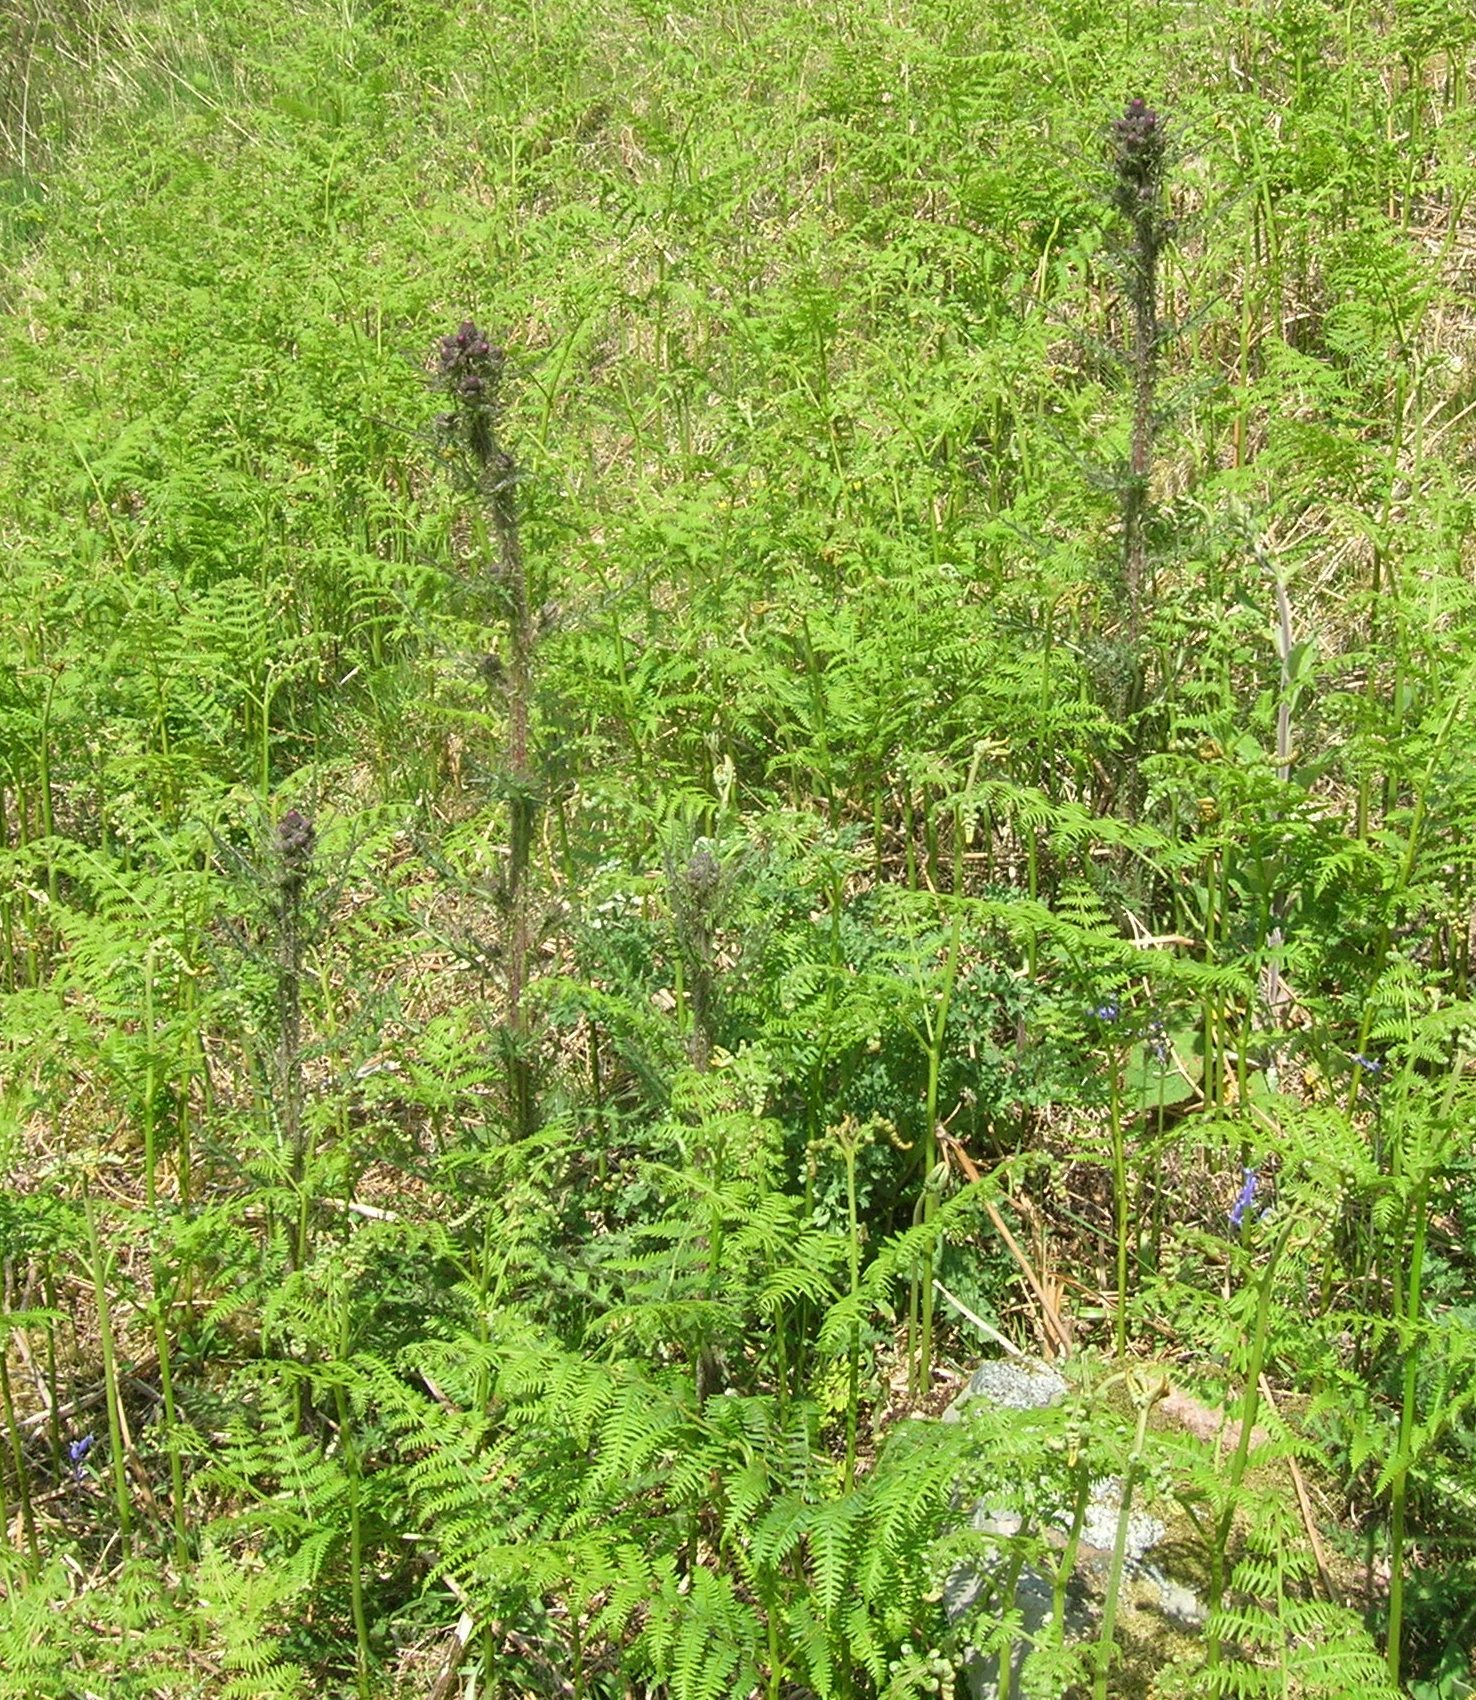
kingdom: Plantae
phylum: Tracheophyta
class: Magnoliopsida
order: Asterales
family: Asteraceae
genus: Cirsium
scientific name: Cirsium palustre
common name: Marsh thistle
